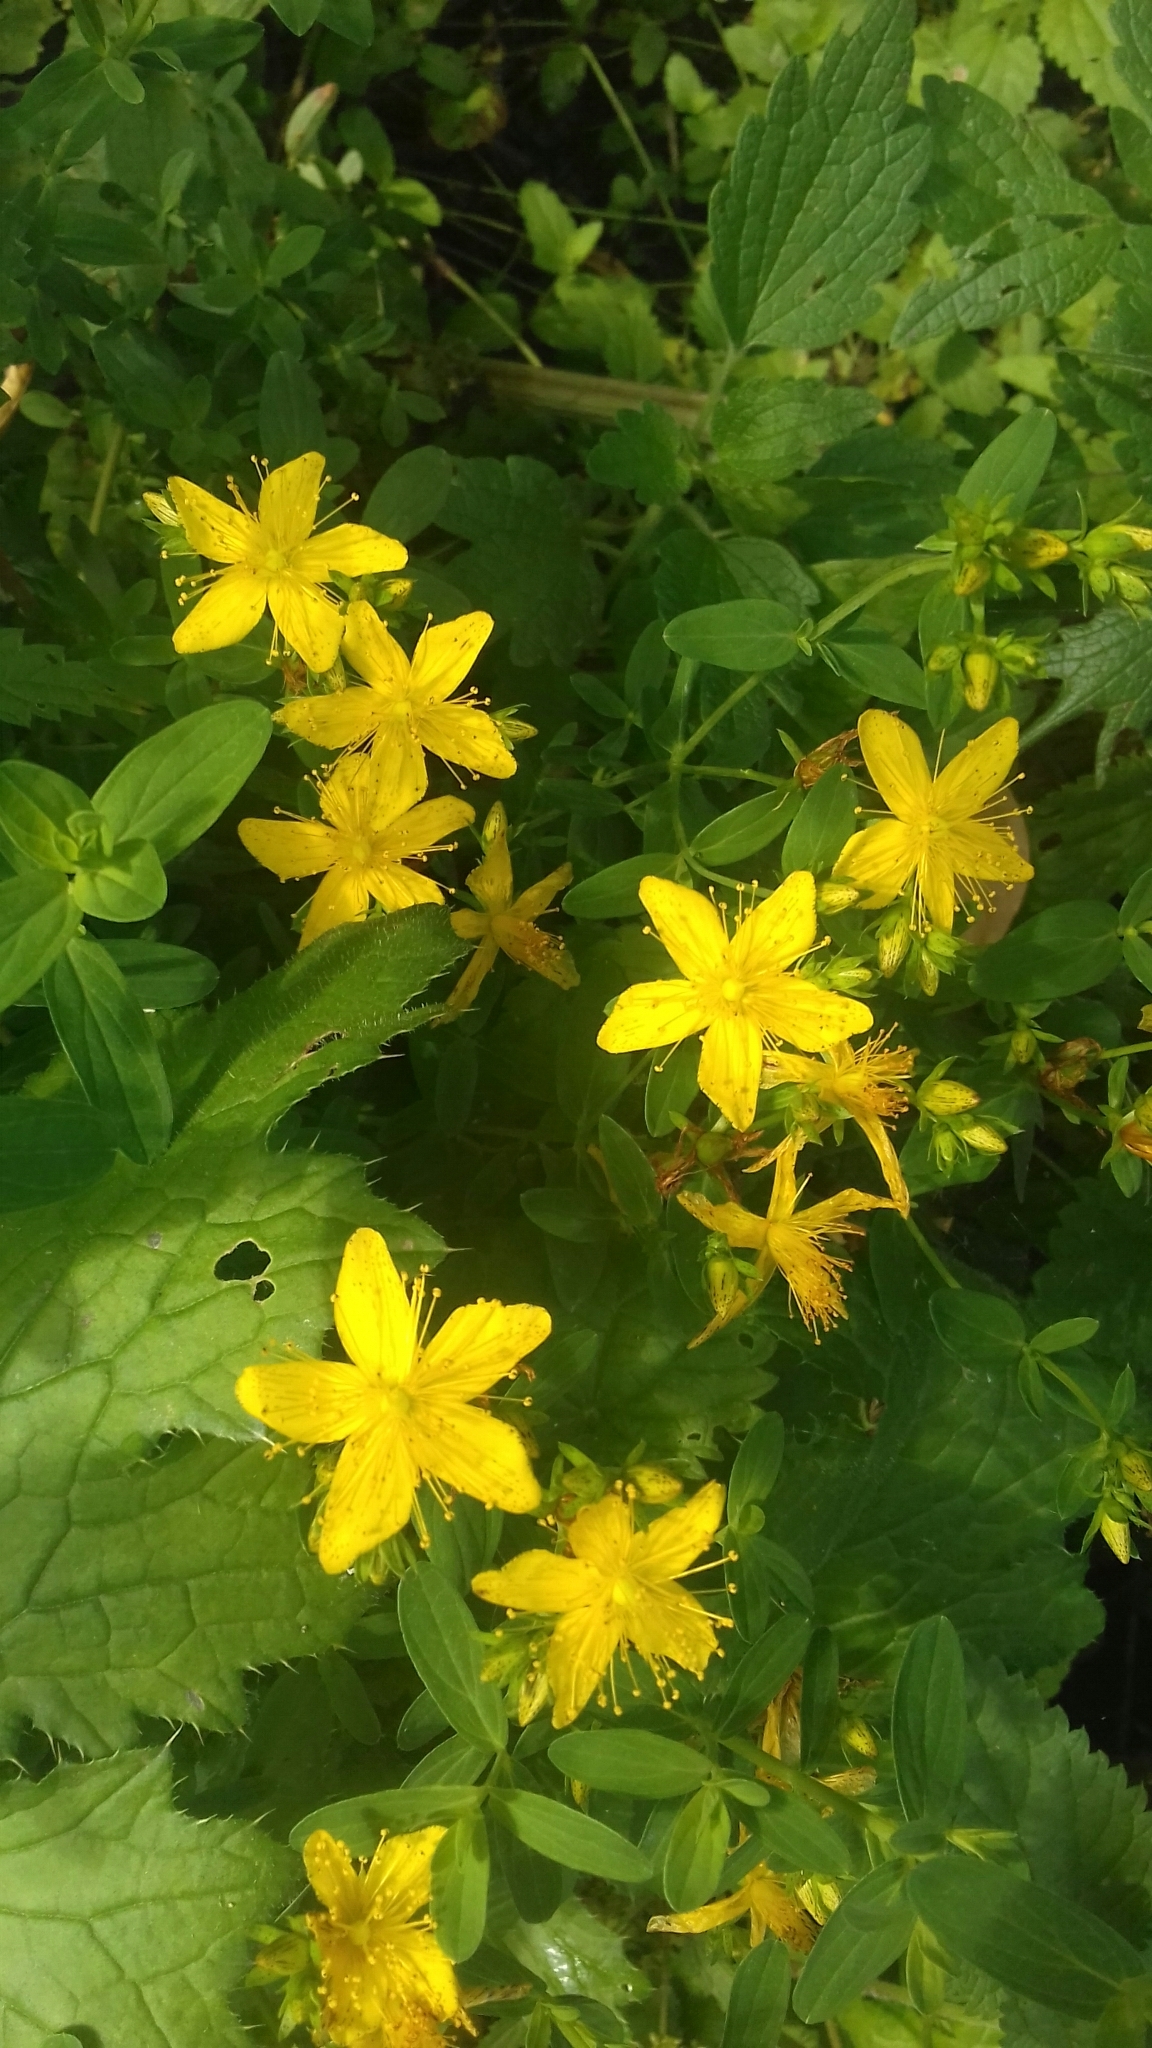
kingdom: Plantae
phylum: Tracheophyta
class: Magnoliopsida
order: Malpighiales
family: Hypericaceae
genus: Hypericum
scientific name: Hypericum perforatum
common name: Common st. johnswort
